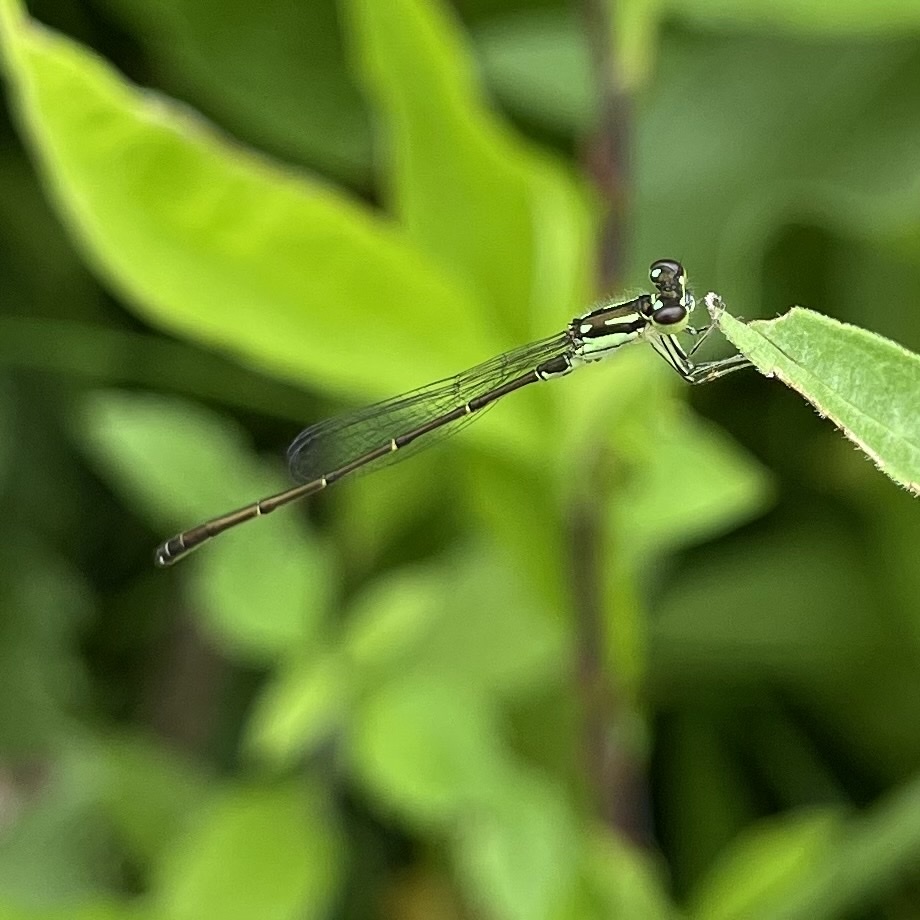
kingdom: Animalia
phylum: Arthropoda
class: Insecta
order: Odonata
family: Coenagrionidae
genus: Ischnura
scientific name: Ischnura posita
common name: Fragile forktail
